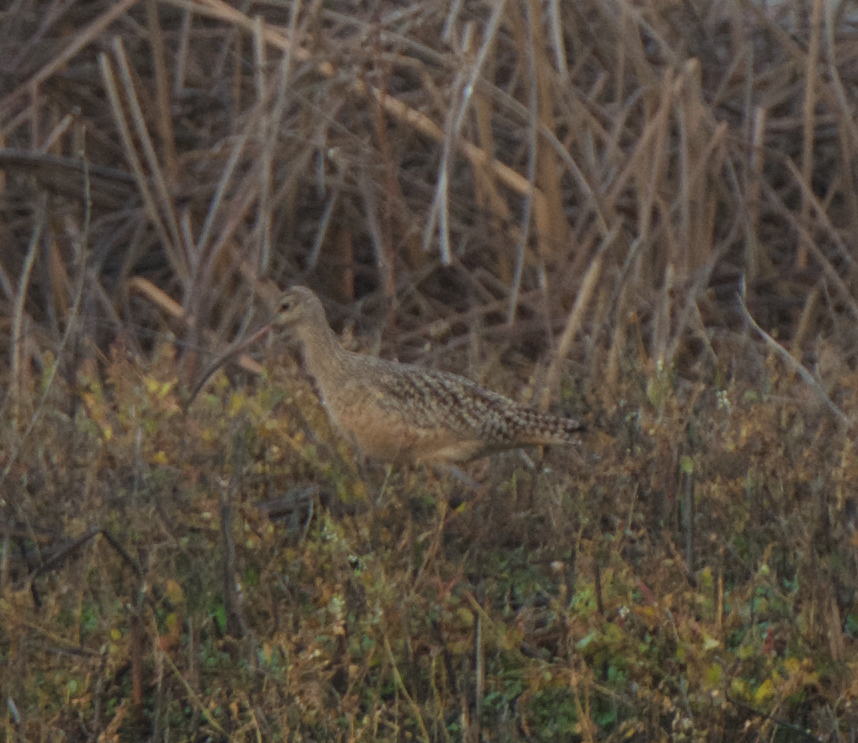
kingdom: Animalia
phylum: Chordata
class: Aves
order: Charadriiformes
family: Scolopacidae
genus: Numenius
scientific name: Numenius americanus
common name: Long-billed curlew
